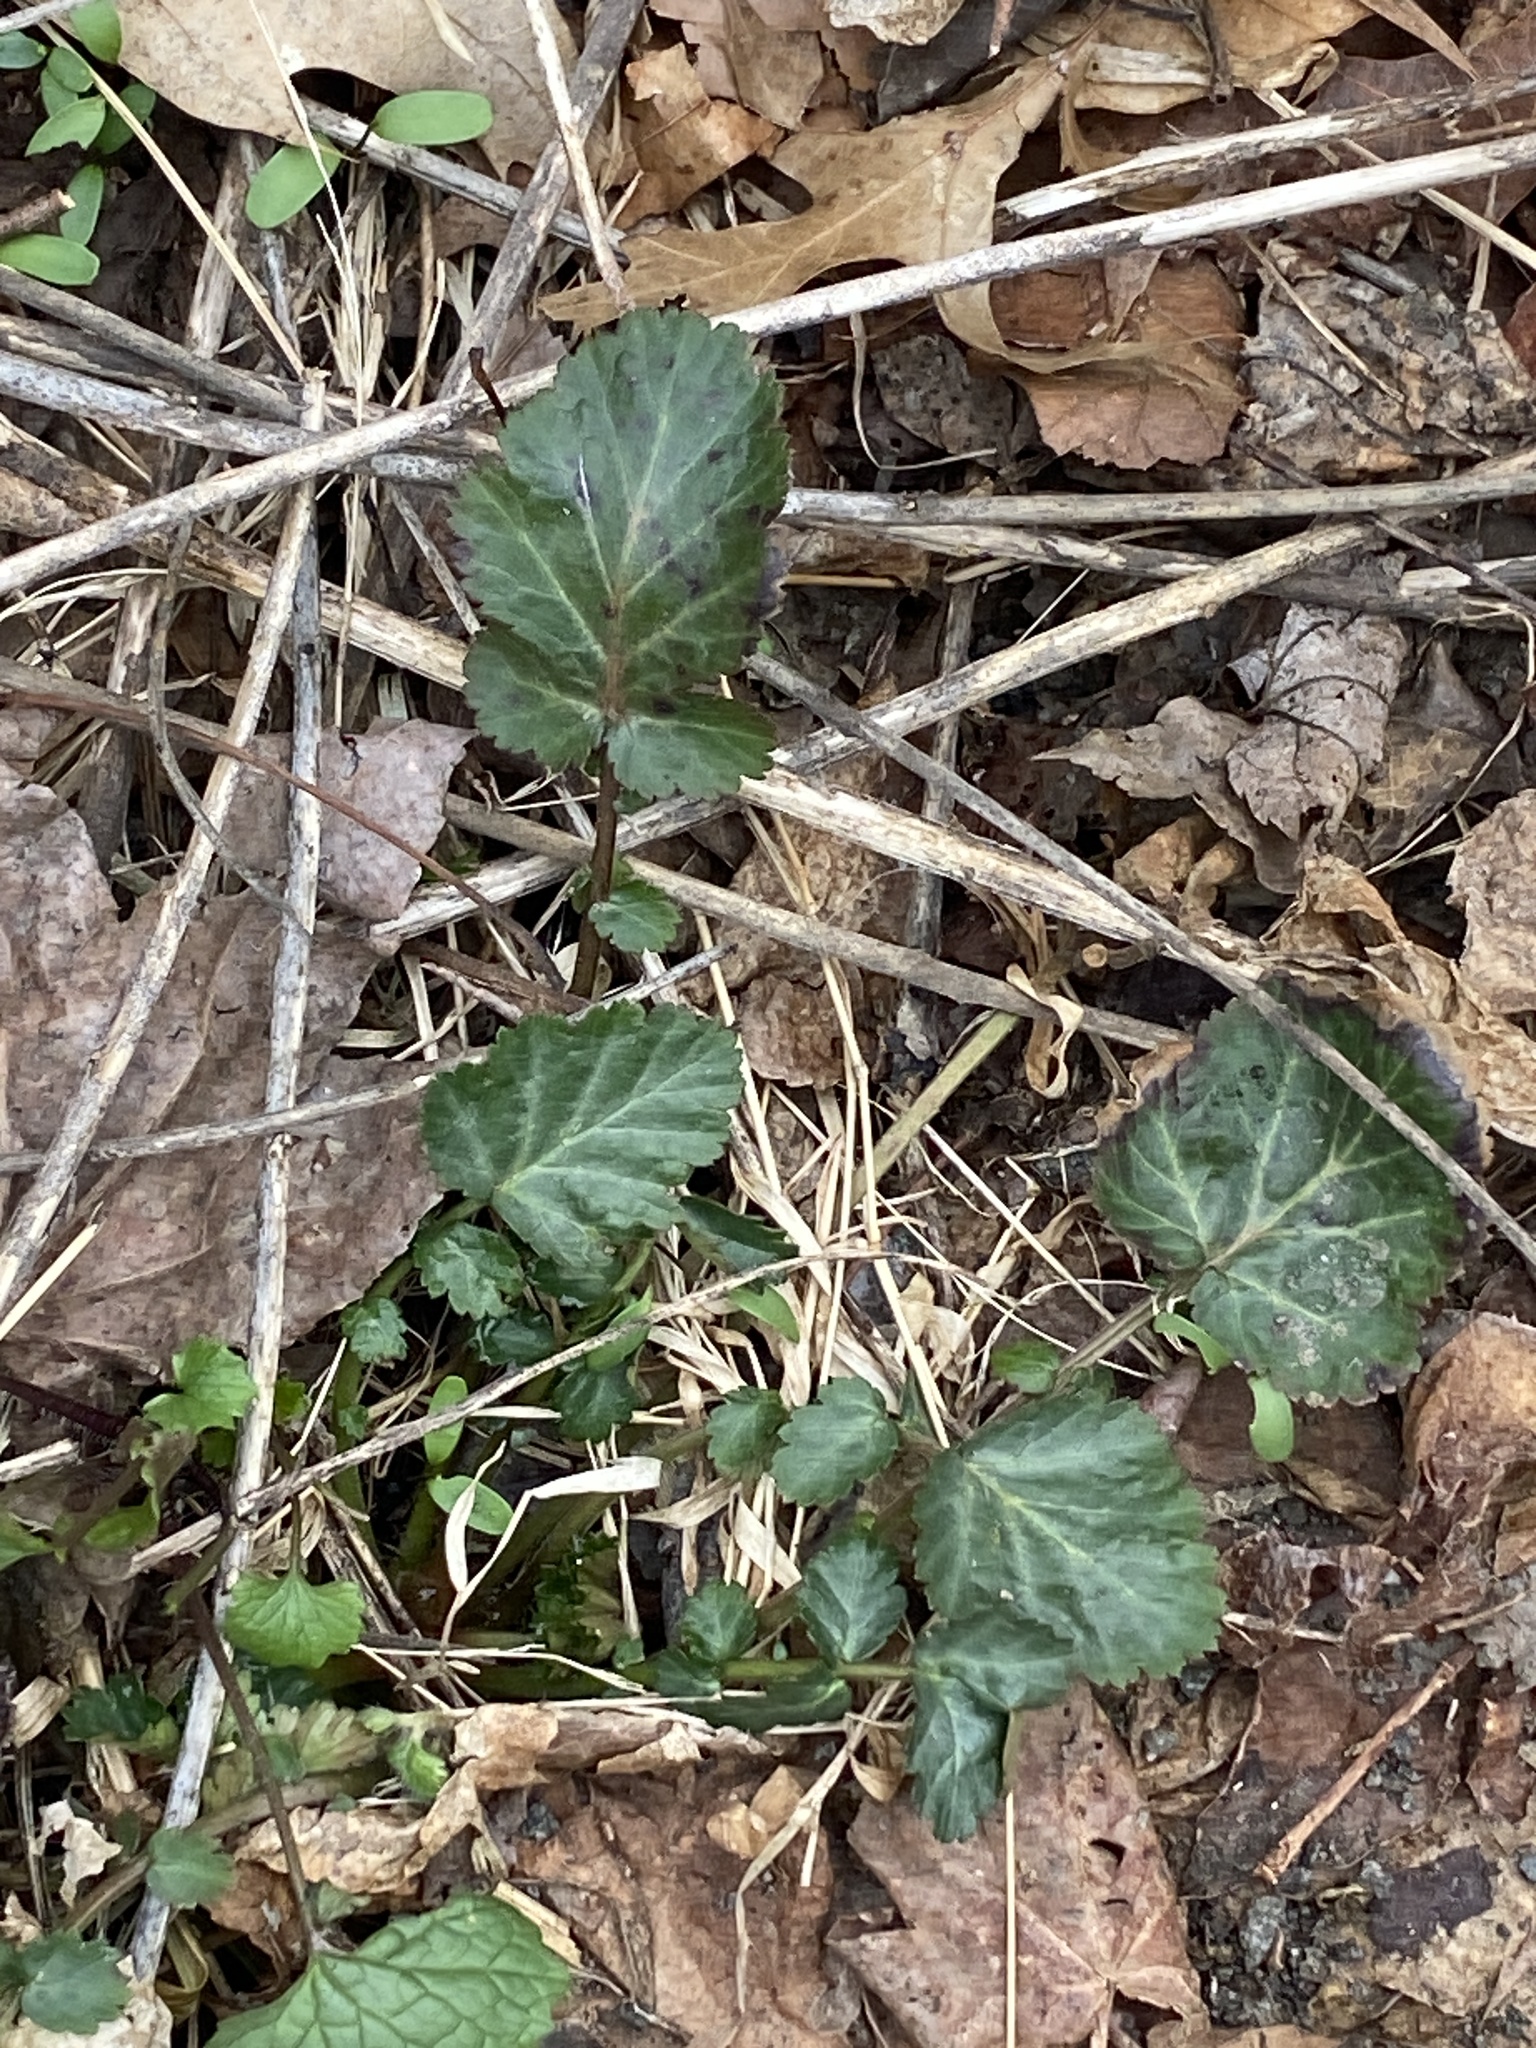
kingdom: Plantae
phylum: Tracheophyta
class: Magnoliopsida
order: Rosales
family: Rosaceae
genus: Geum
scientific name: Geum canadense
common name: White avens
